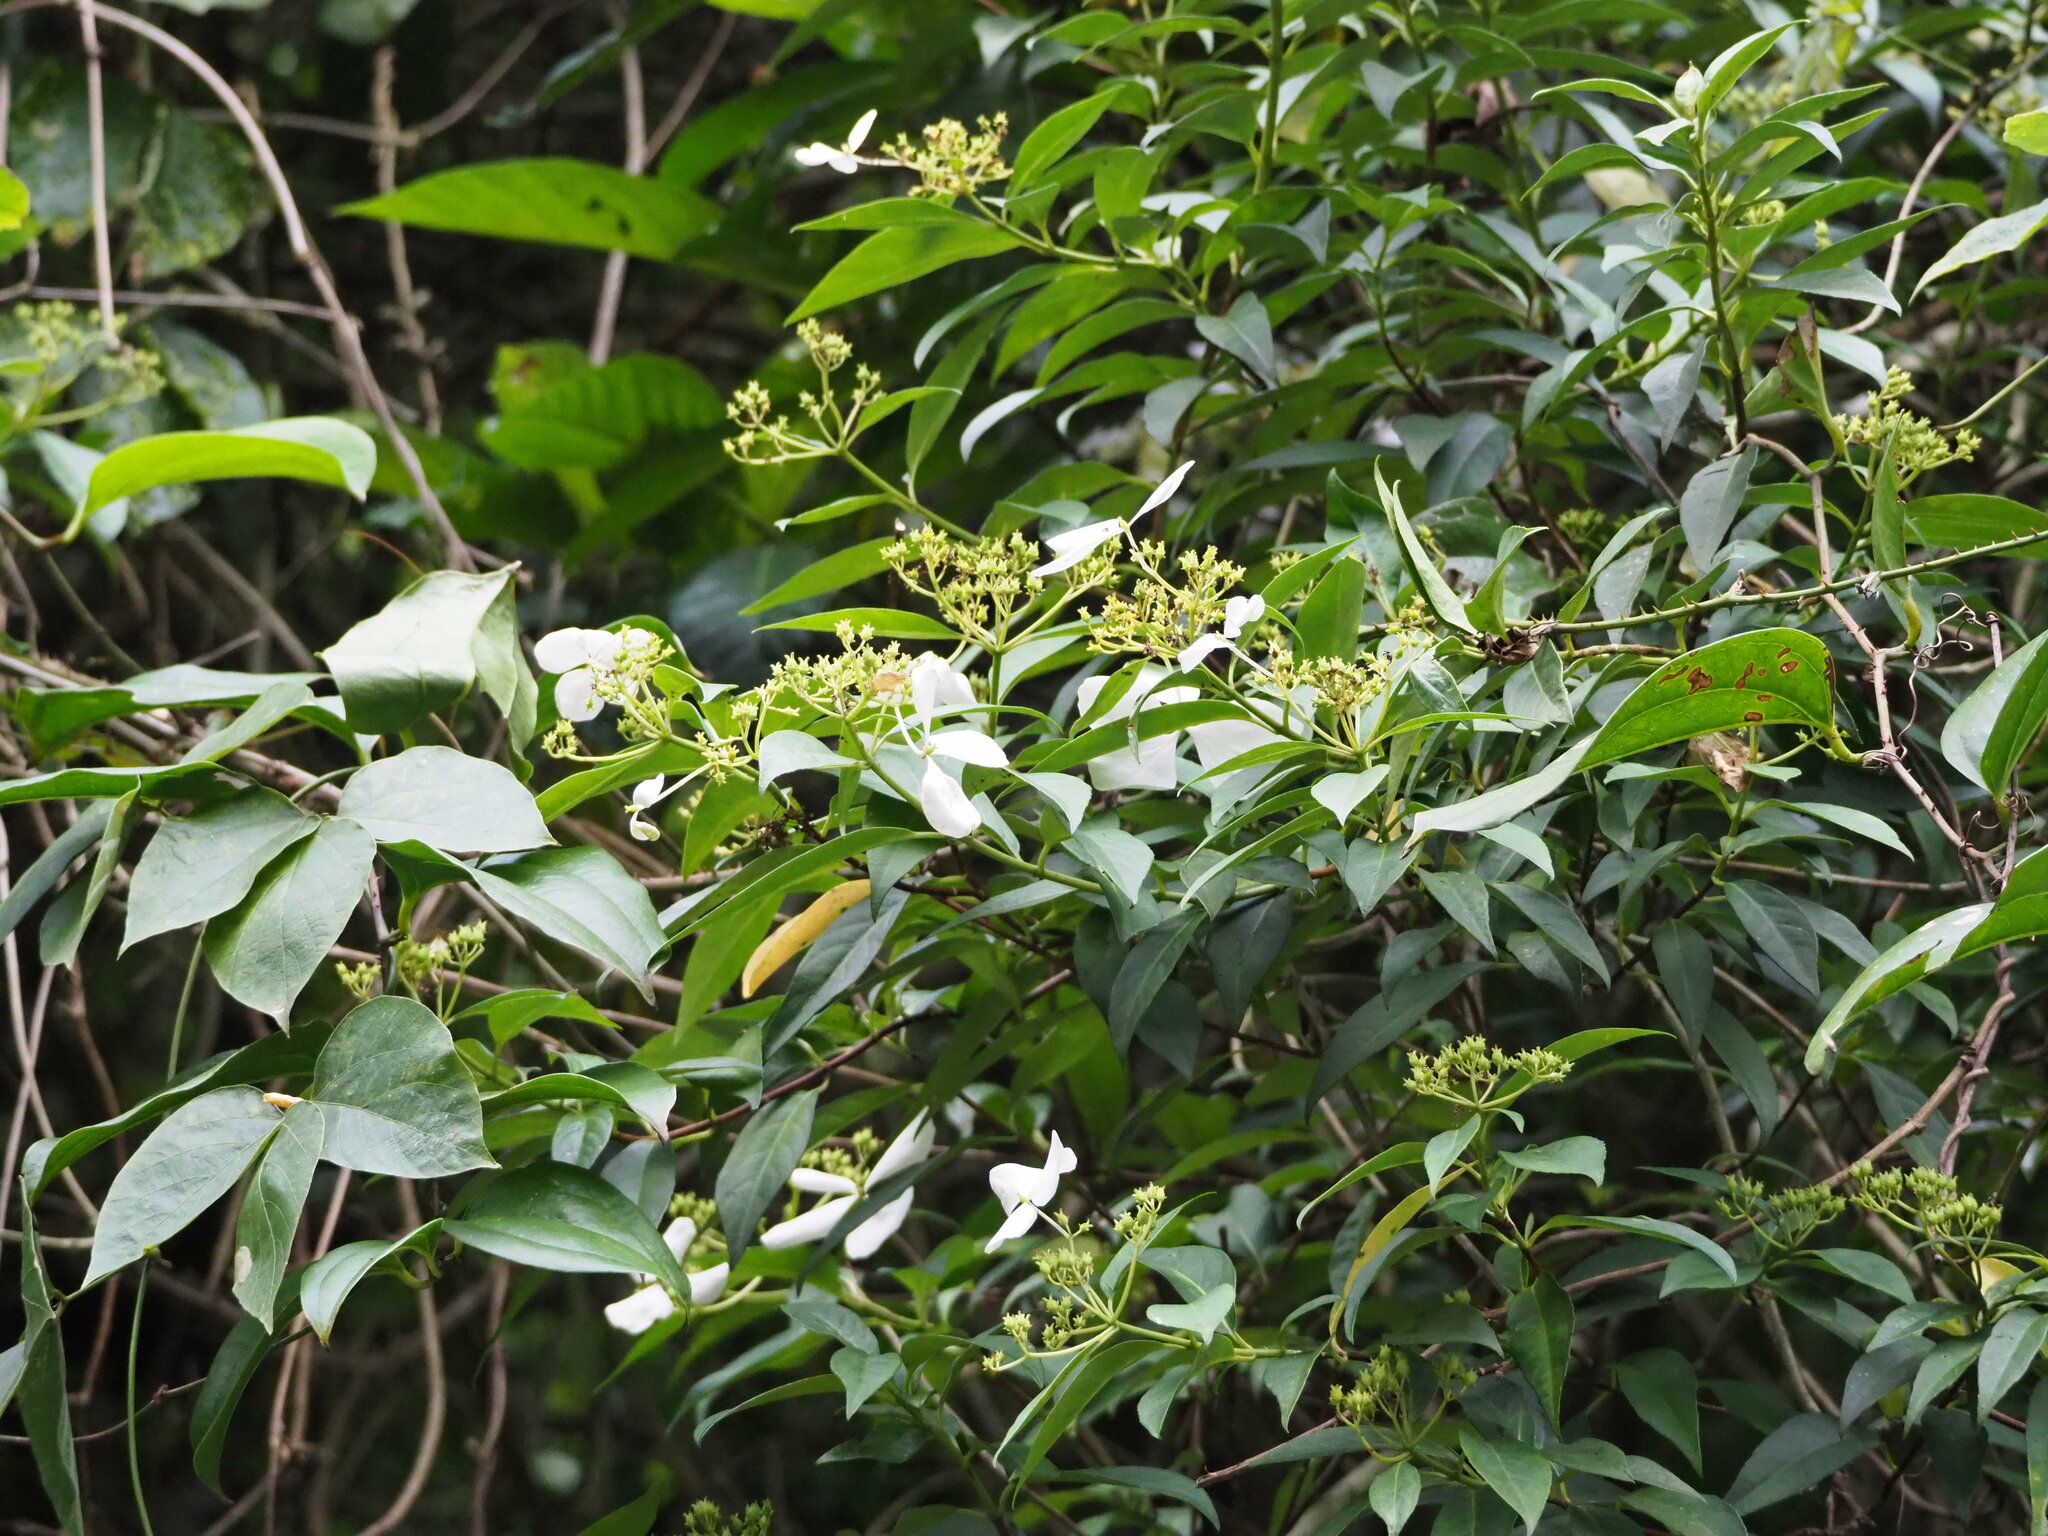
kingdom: Plantae
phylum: Tracheophyta
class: Magnoliopsida
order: Cornales
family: Hydrangeaceae
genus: Hydrangea
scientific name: Hydrangea chinensis
